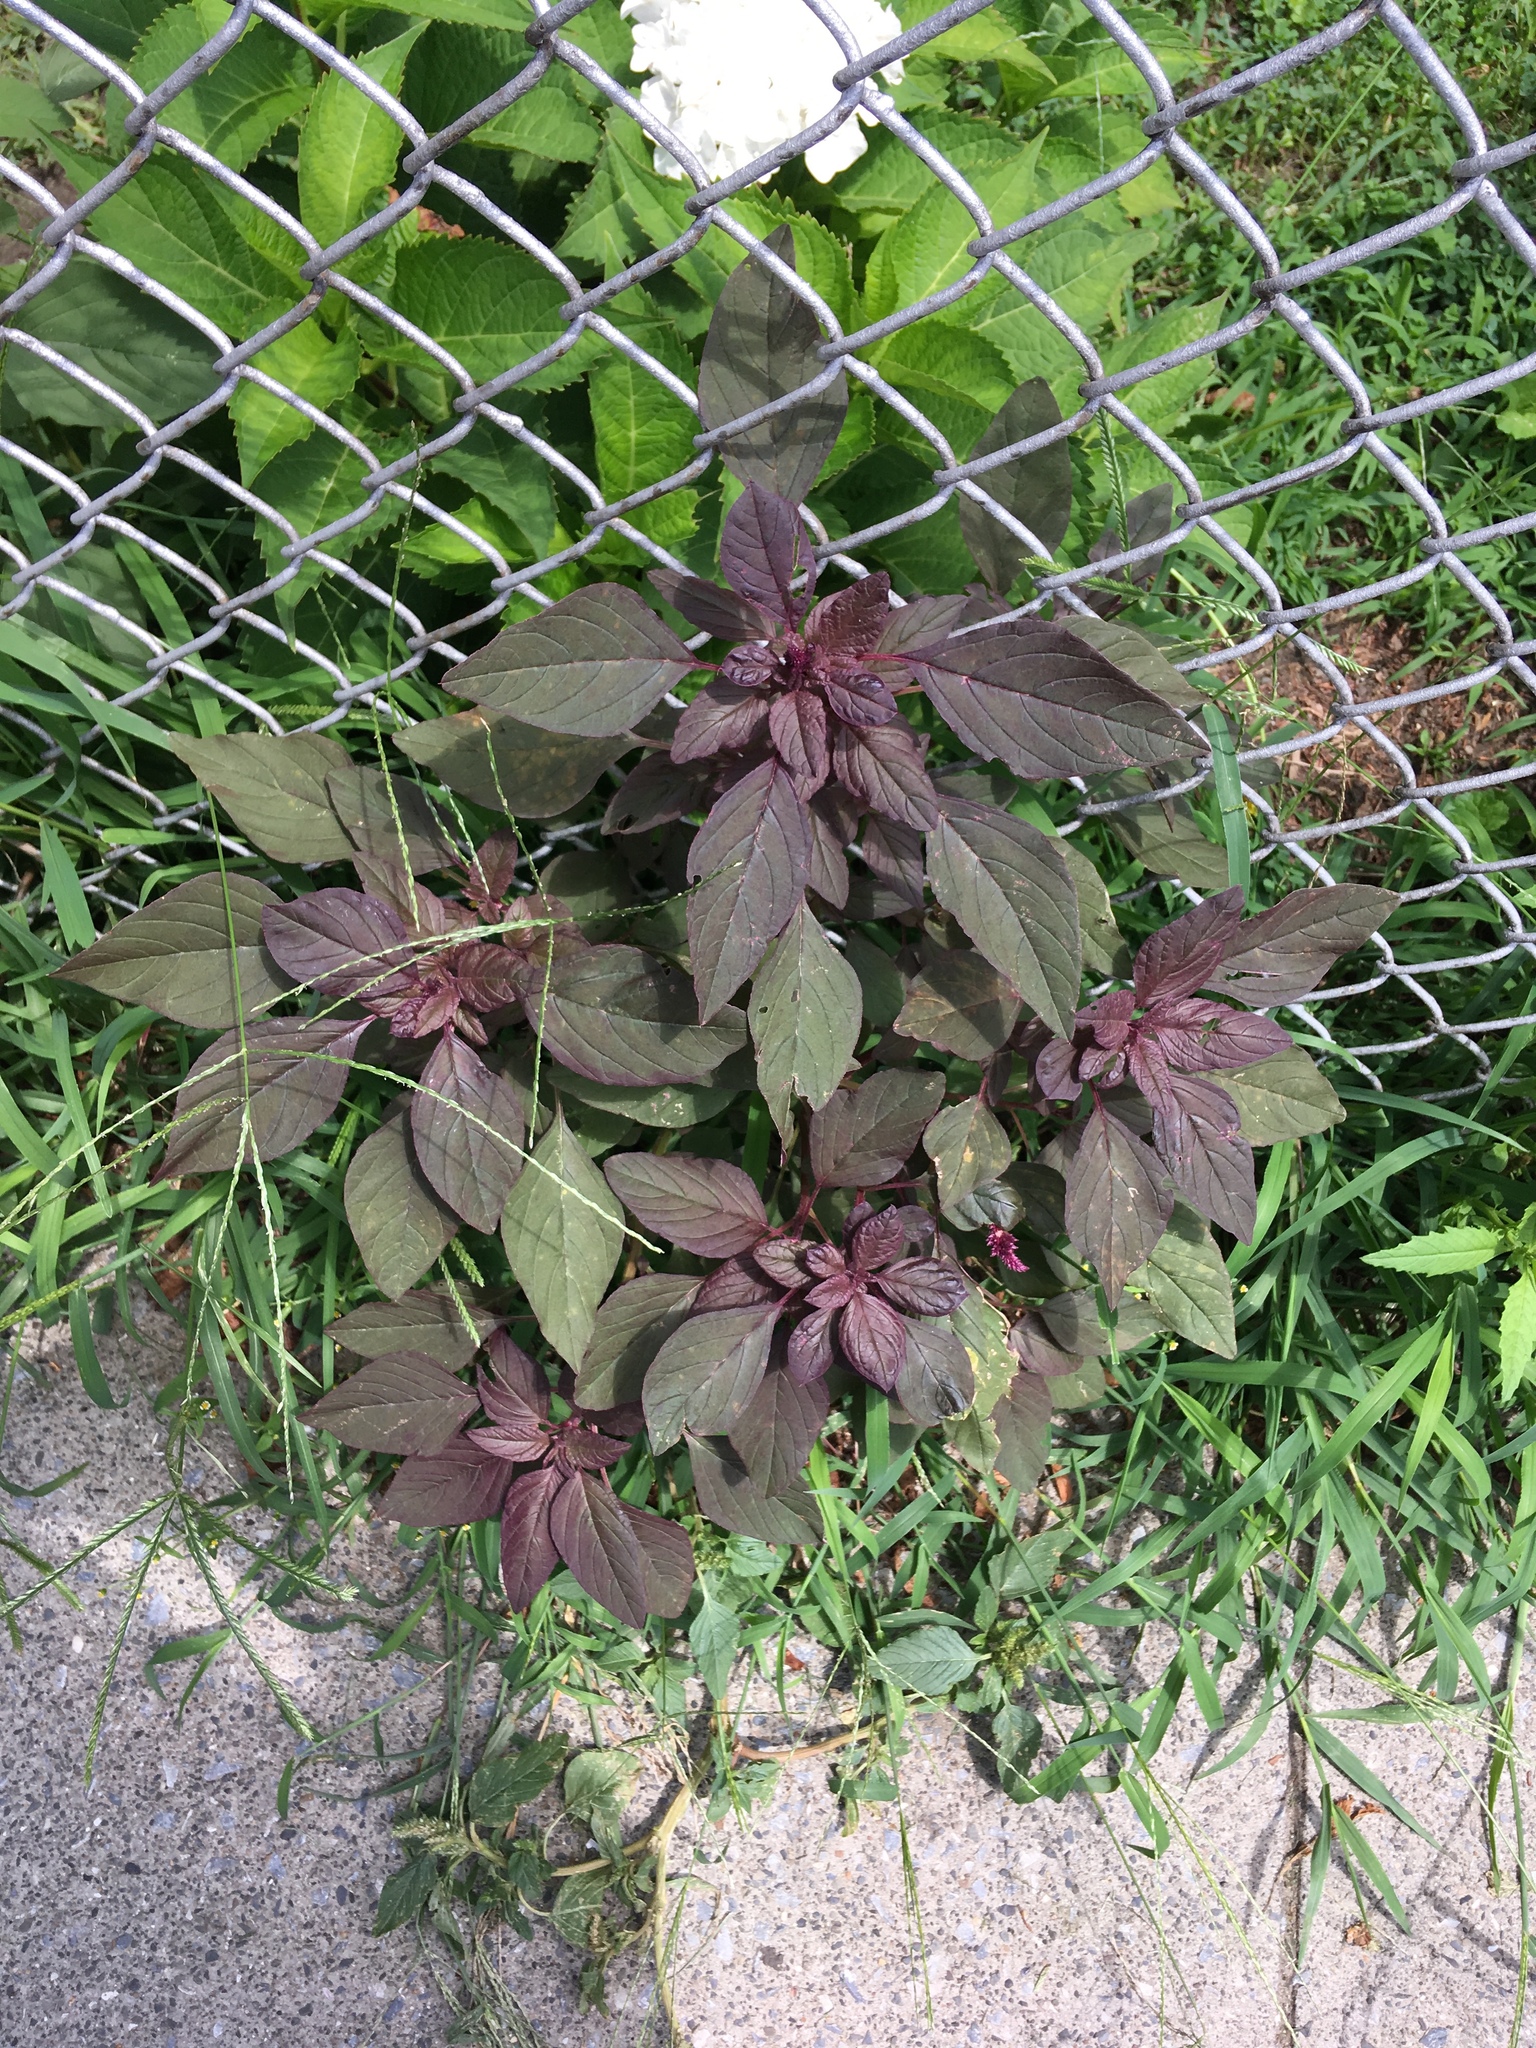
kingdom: Plantae
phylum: Tracheophyta
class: Magnoliopsida
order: Caryophyllales
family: Amaranthaceae
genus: Amaranthus
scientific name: Amaranthus cruentus
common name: Purple amaranth
